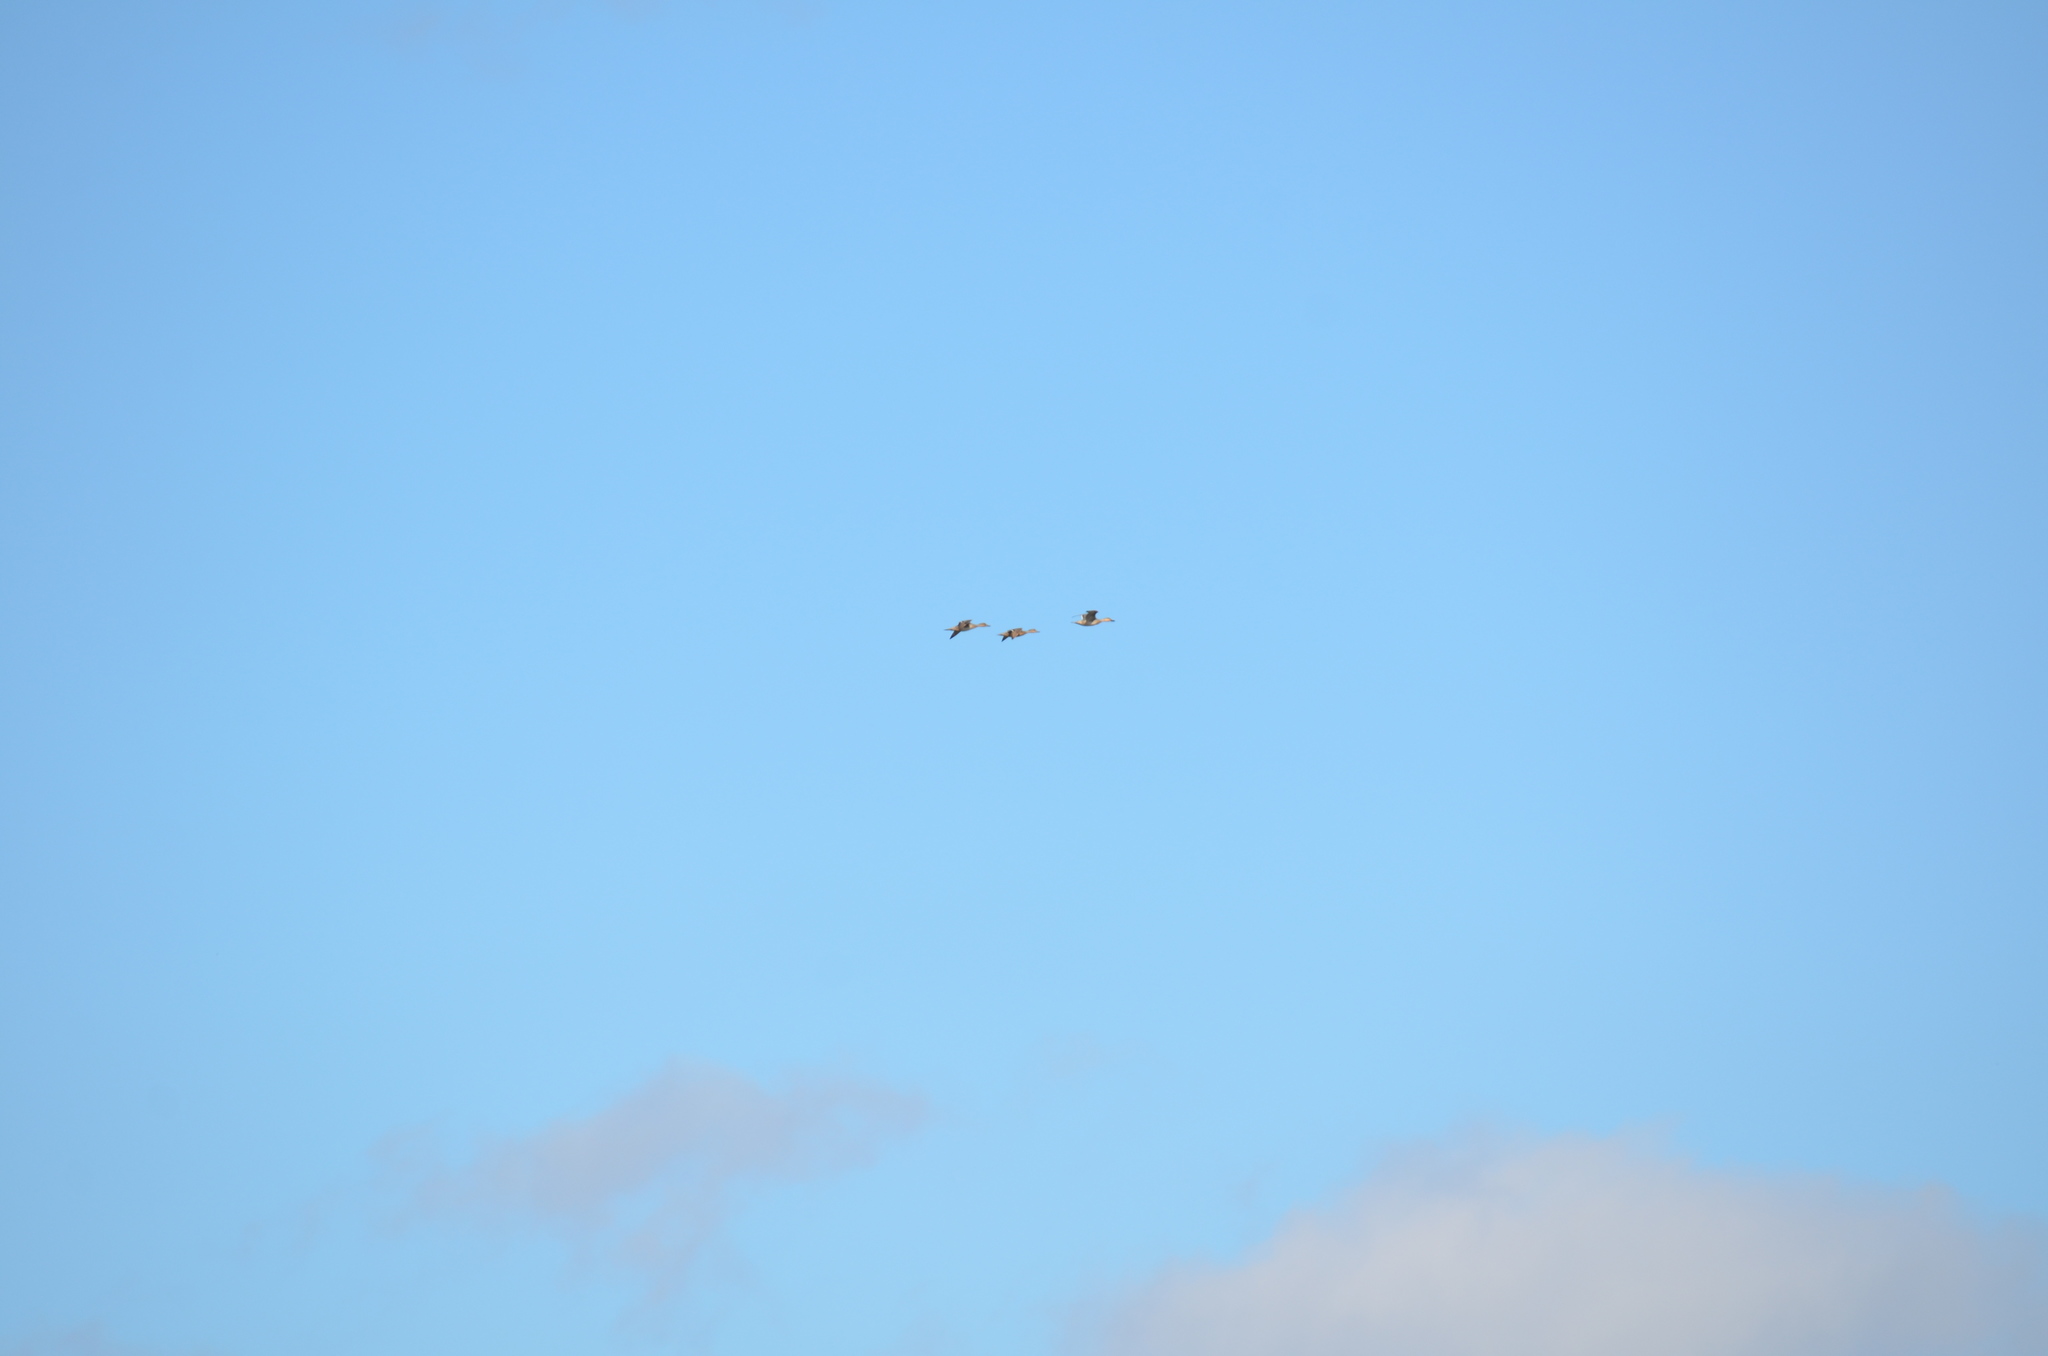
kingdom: Animalia
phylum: Chordata
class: Aves
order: Anseriformes
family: Anatidae
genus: Anas
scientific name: Anas acuta
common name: Northern pintail
